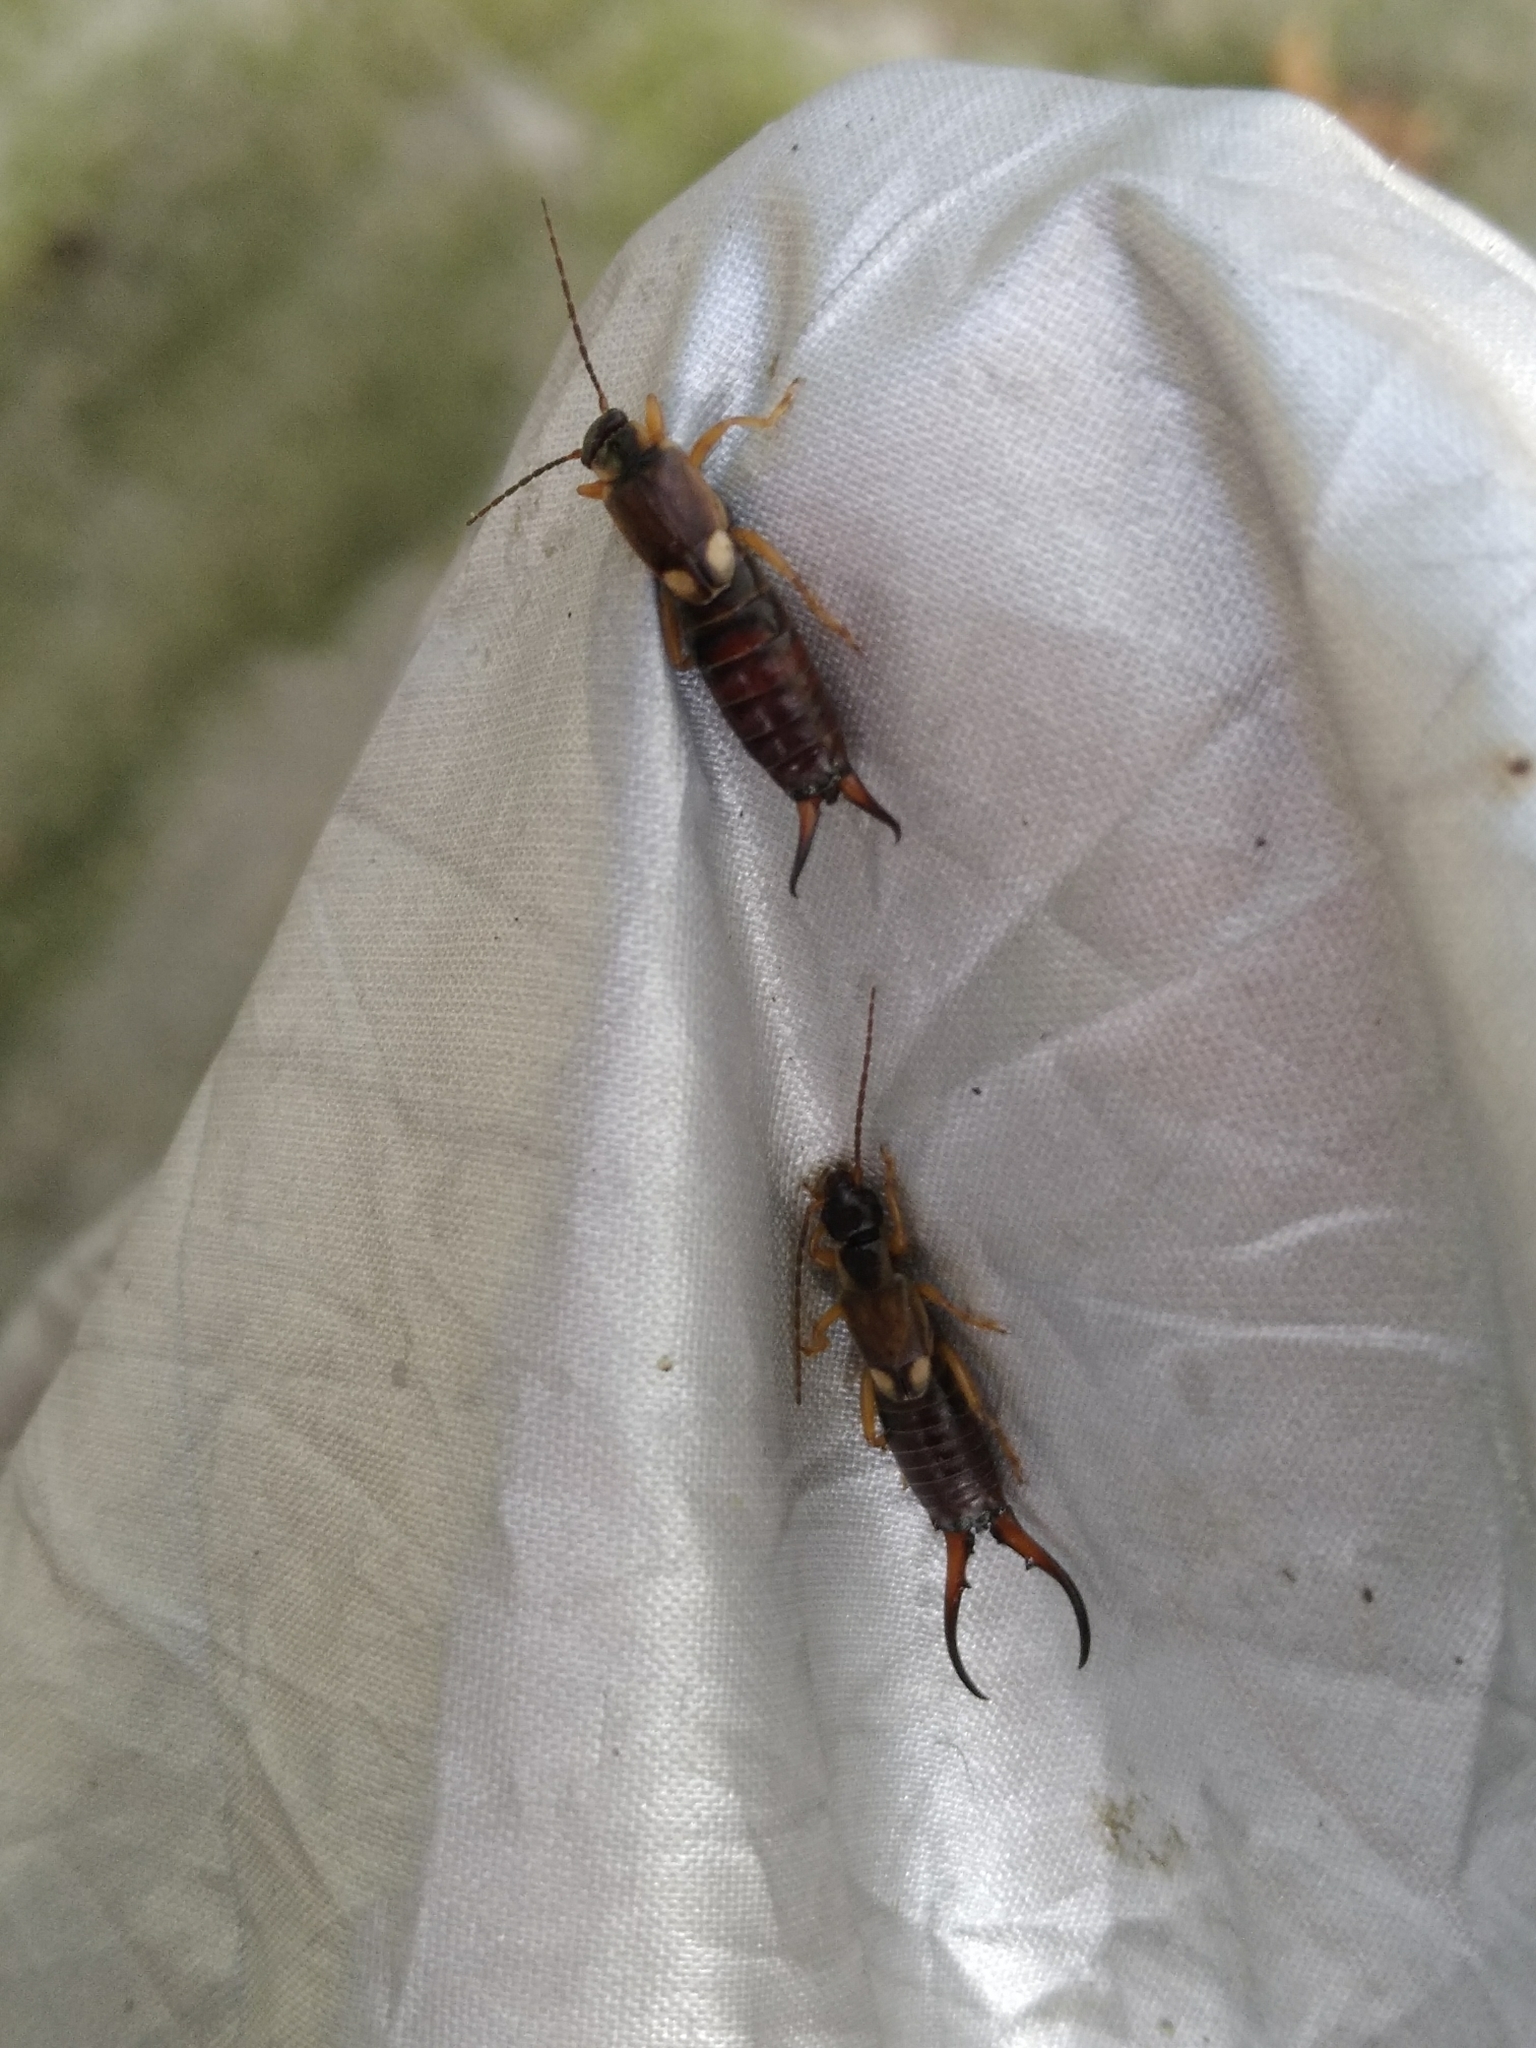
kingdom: Animalia
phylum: Arthropoda
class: Insecta
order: Dermaptera
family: Forficulidae
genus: Forficula
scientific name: Forficula
